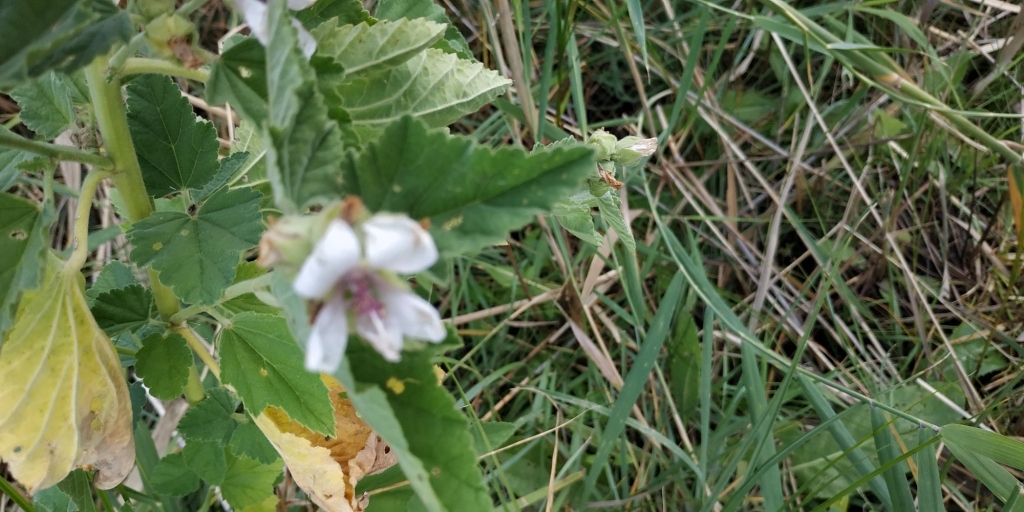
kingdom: Plantae
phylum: Tracheophyta
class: Magnoliopsida
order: Malvales
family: Malvaceae
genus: Althaea
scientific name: Althaea officinalis
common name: Marsh-mallow
